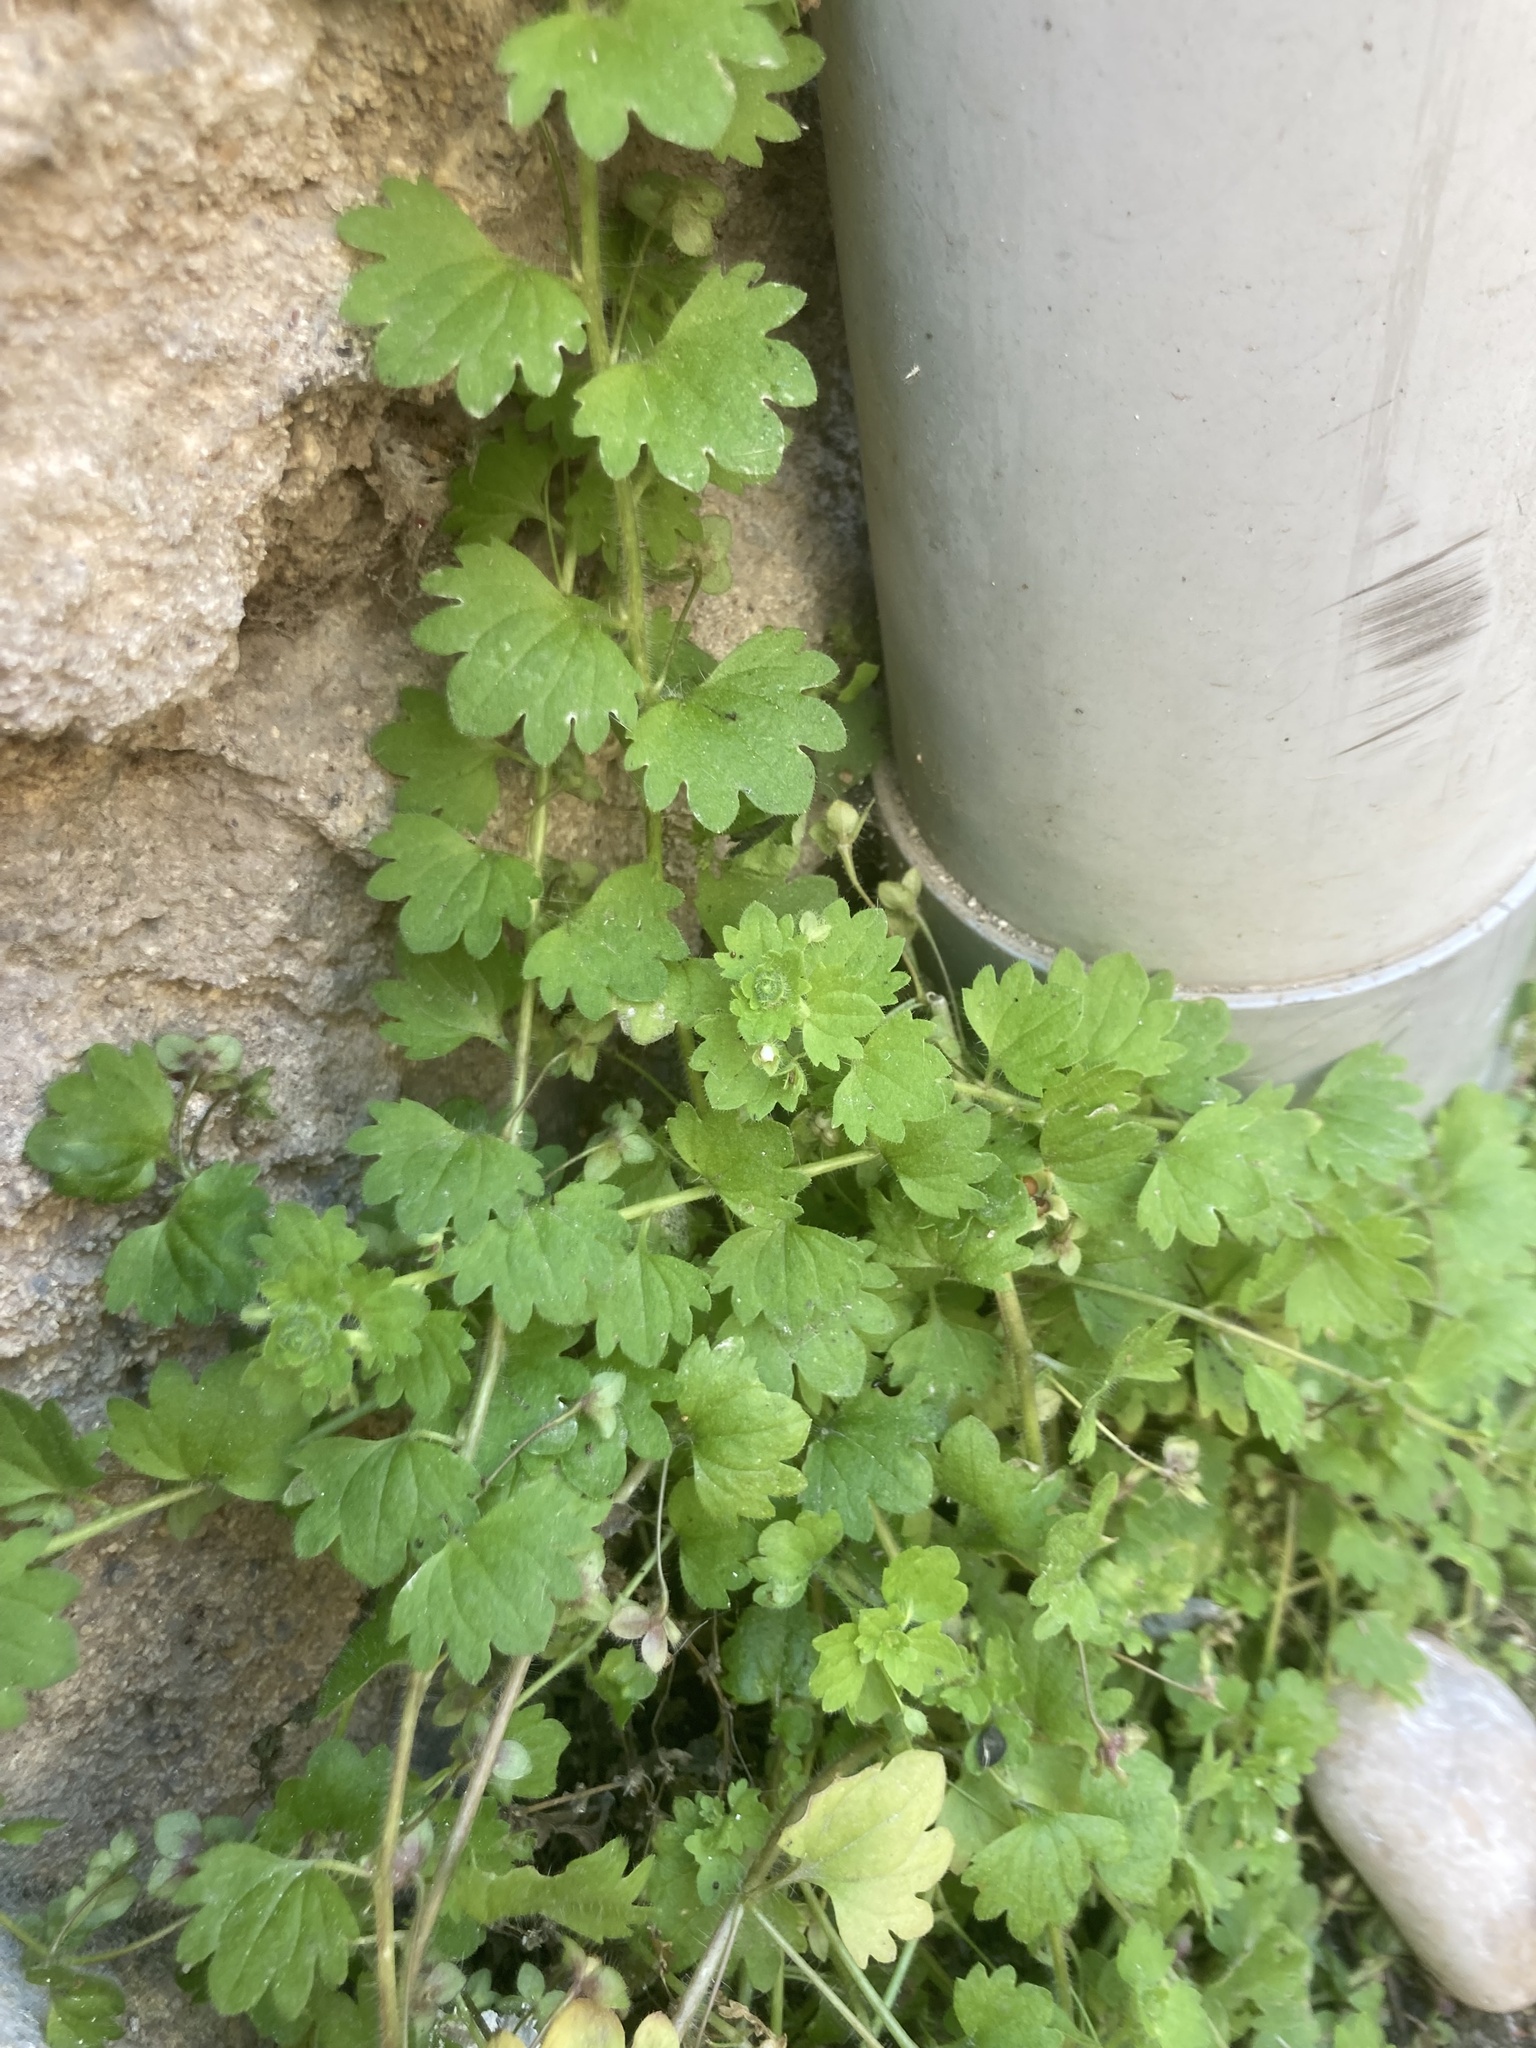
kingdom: Plantae
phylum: Tracheophyta
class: Magnoliopsida
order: Lamiales
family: Plantaginaceae
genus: Veronica
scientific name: Veronica cymbalaria
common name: Pale speedwell
